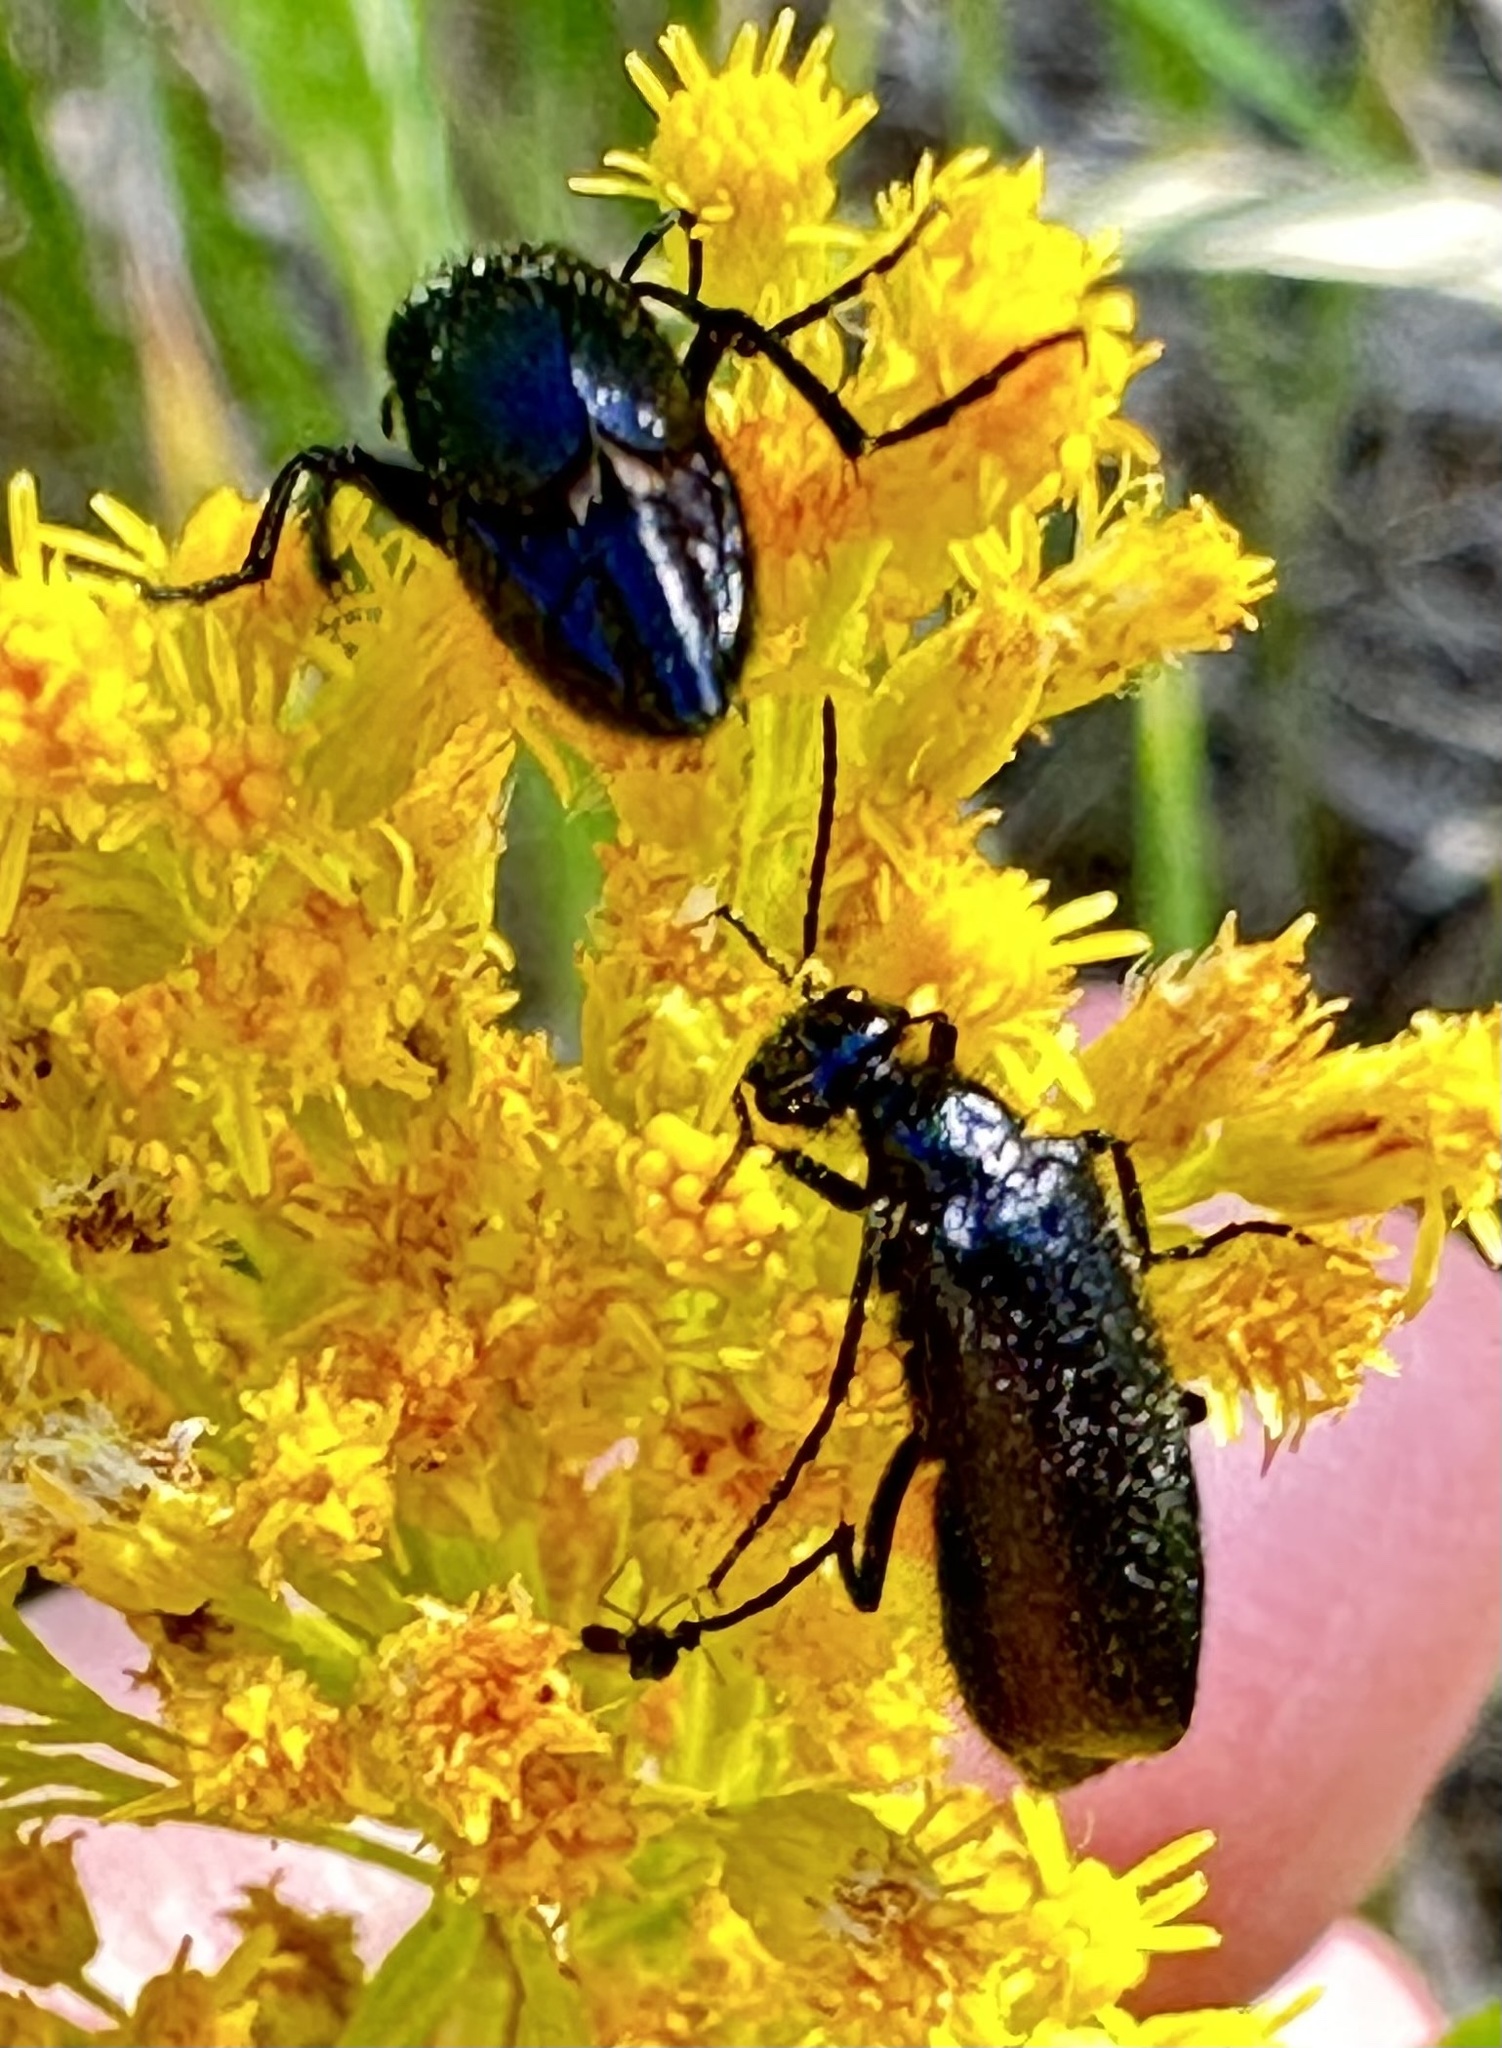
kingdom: Animalia
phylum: Arthropoda
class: Insecta
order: Coleoptera
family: Meloidae
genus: Epicauta
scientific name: Epicauta puncticollis
